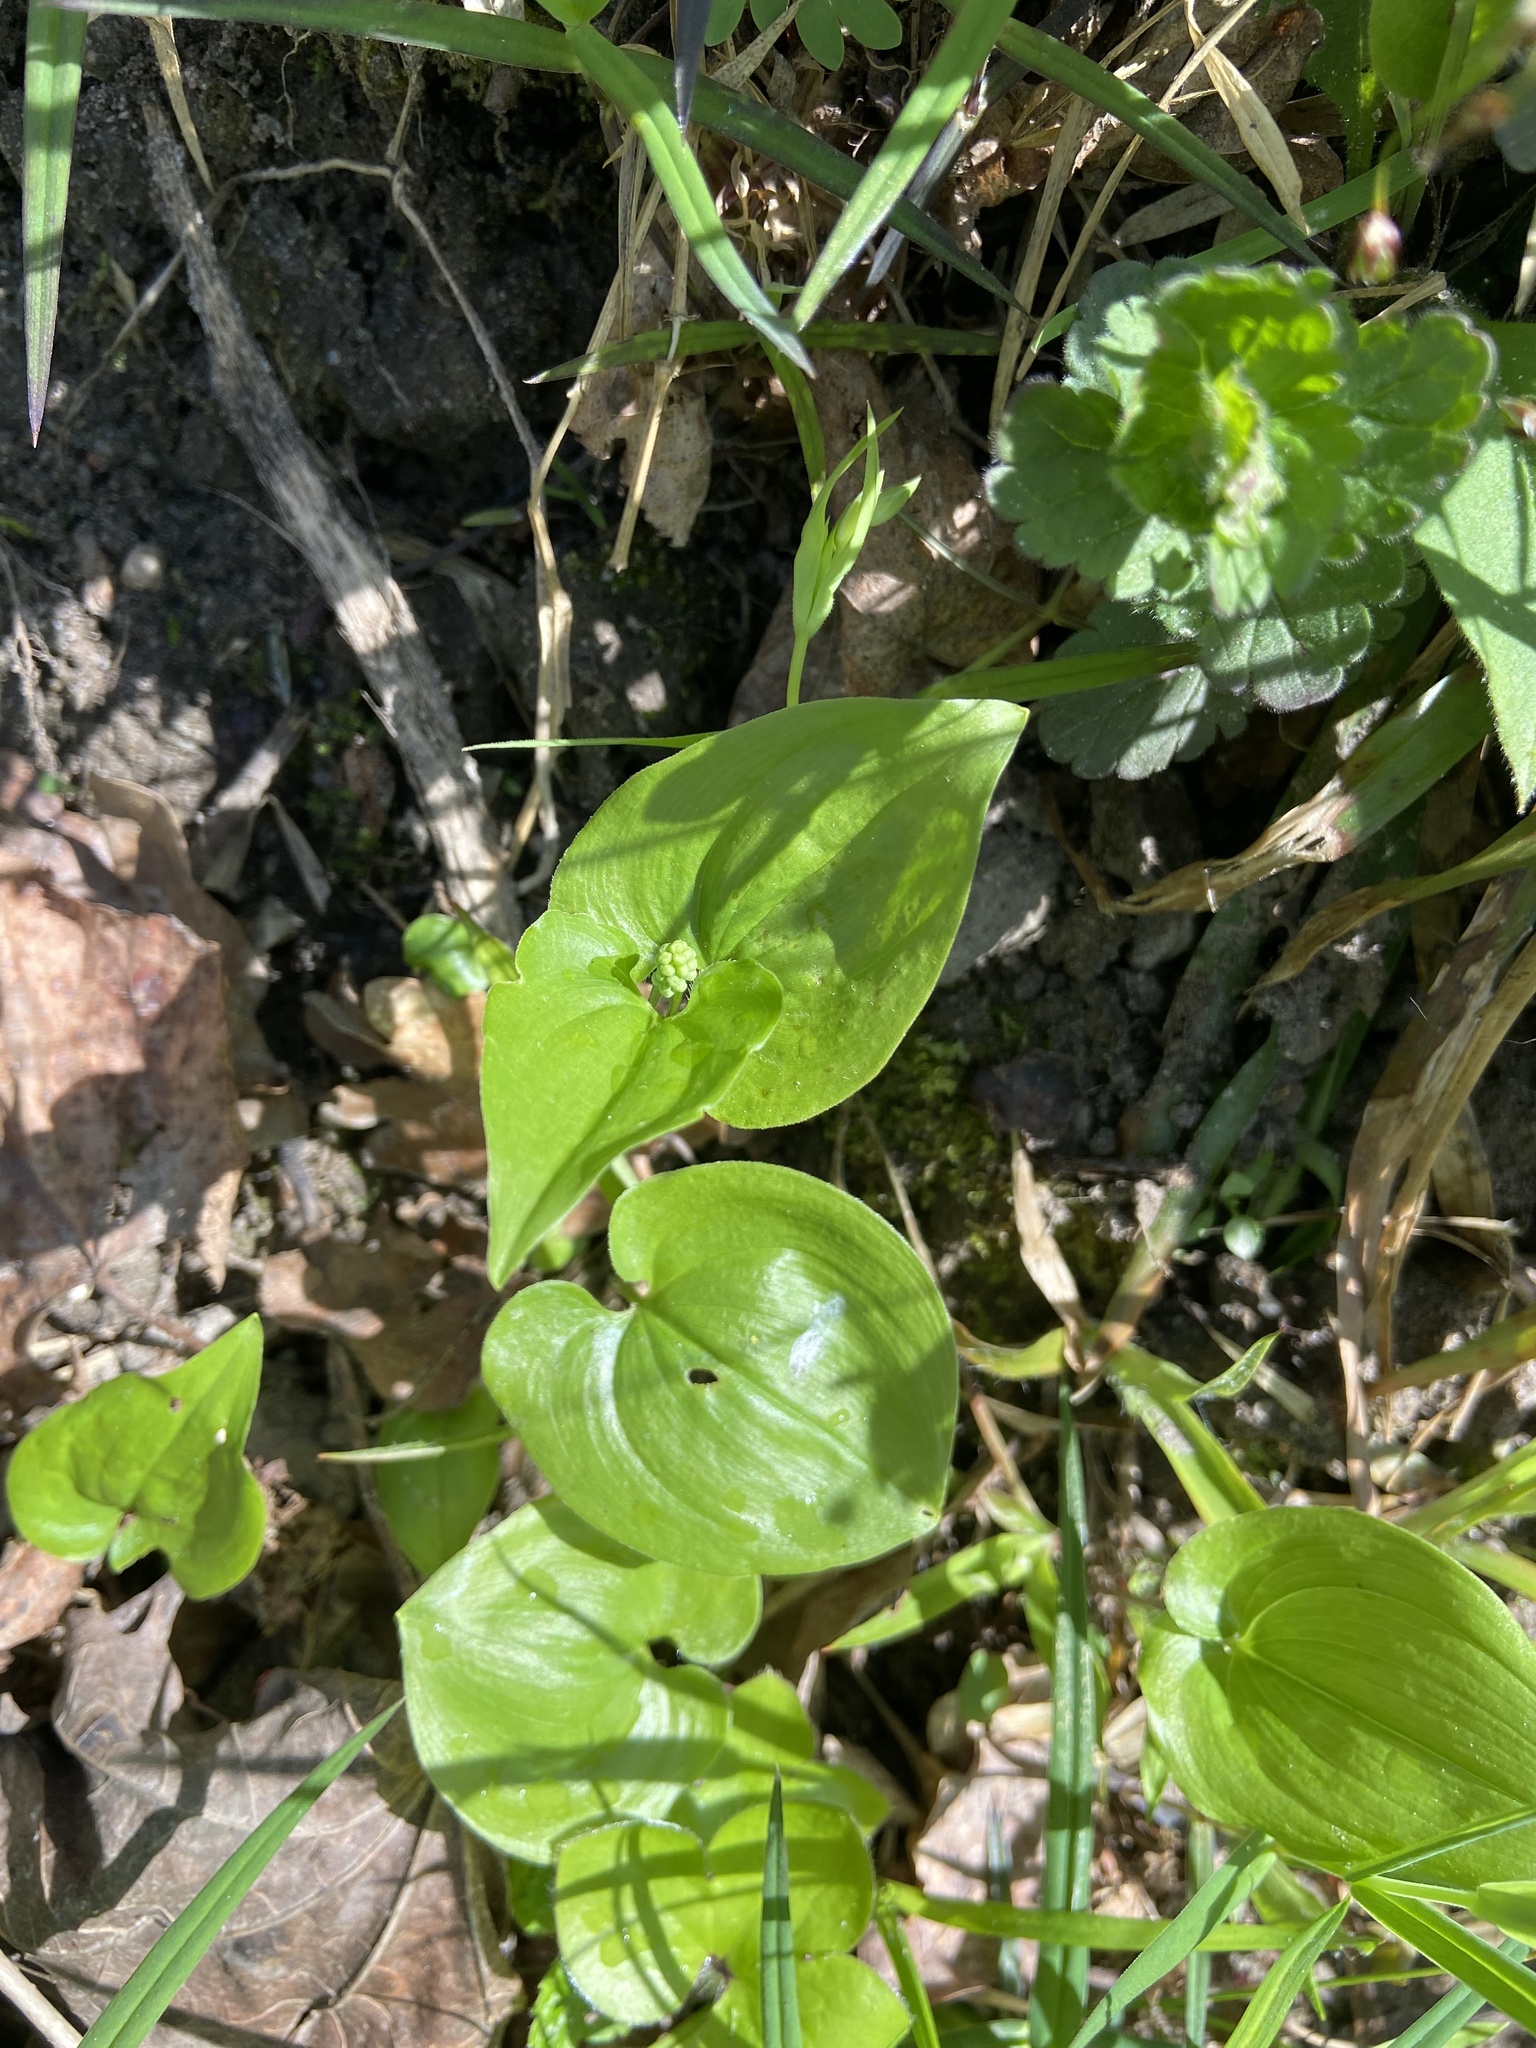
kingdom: Plantae
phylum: Tracheophyta
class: Liliopsida
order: Asparagales
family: Asparagaceae
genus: Maianthemum
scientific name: Maianthemum bifolium
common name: May lily
